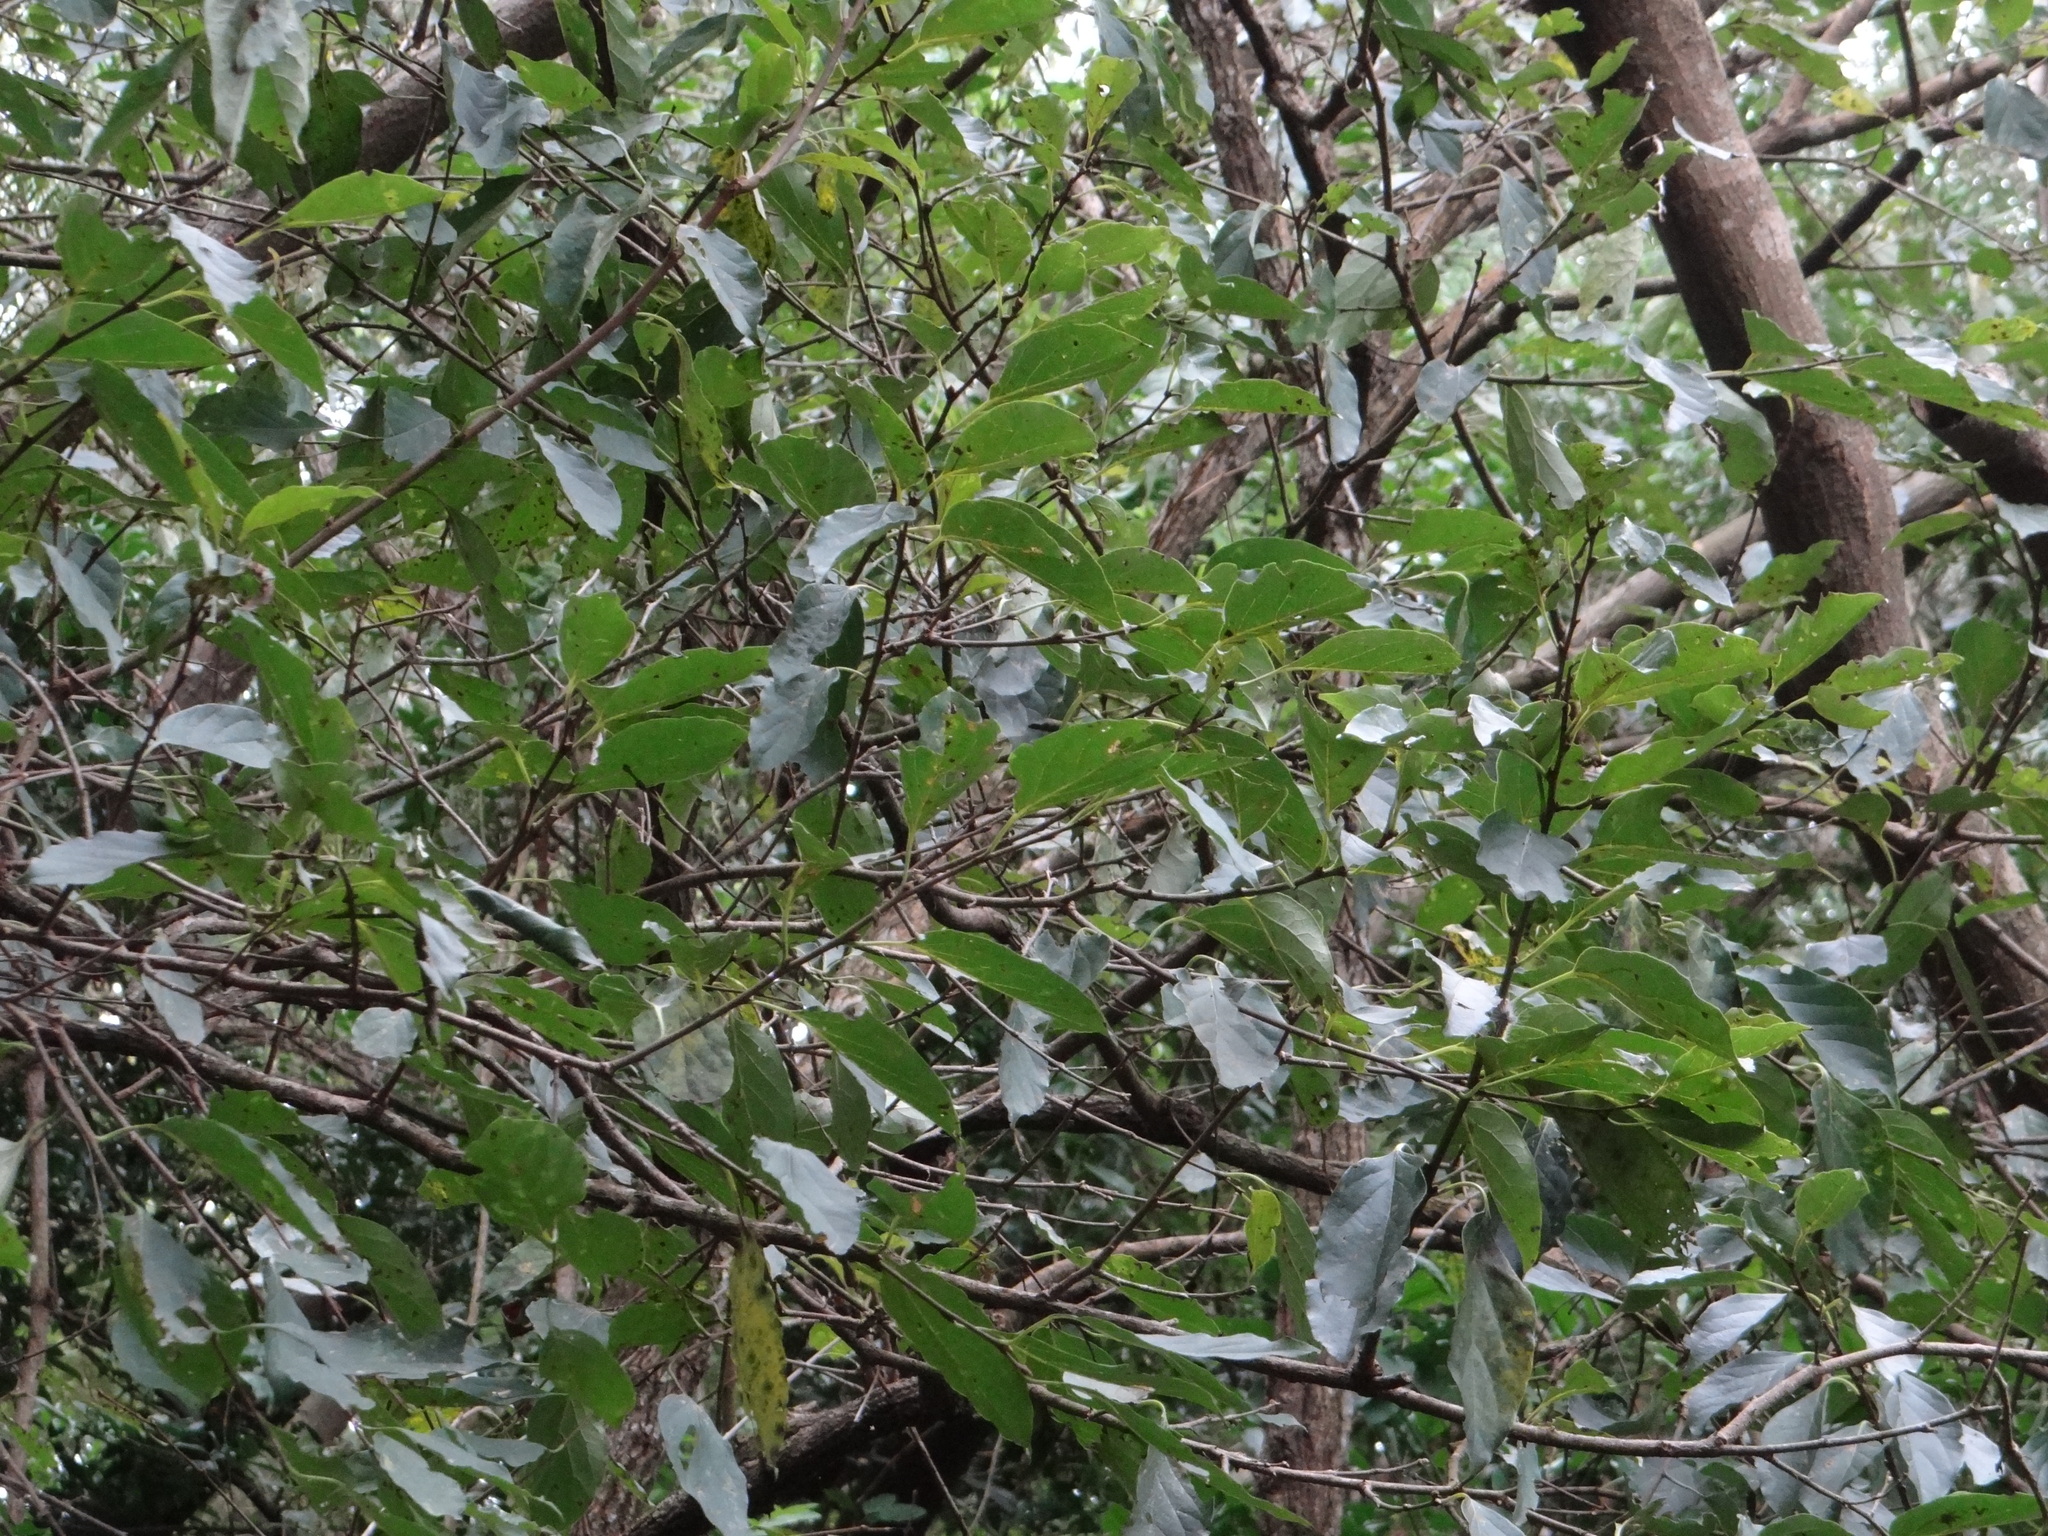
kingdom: Plantae
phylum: Tracheophyta
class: Magnoliopsida
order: Ericales
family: Ebenaceae
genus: Diospyros
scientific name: Diospyros oldhamii
